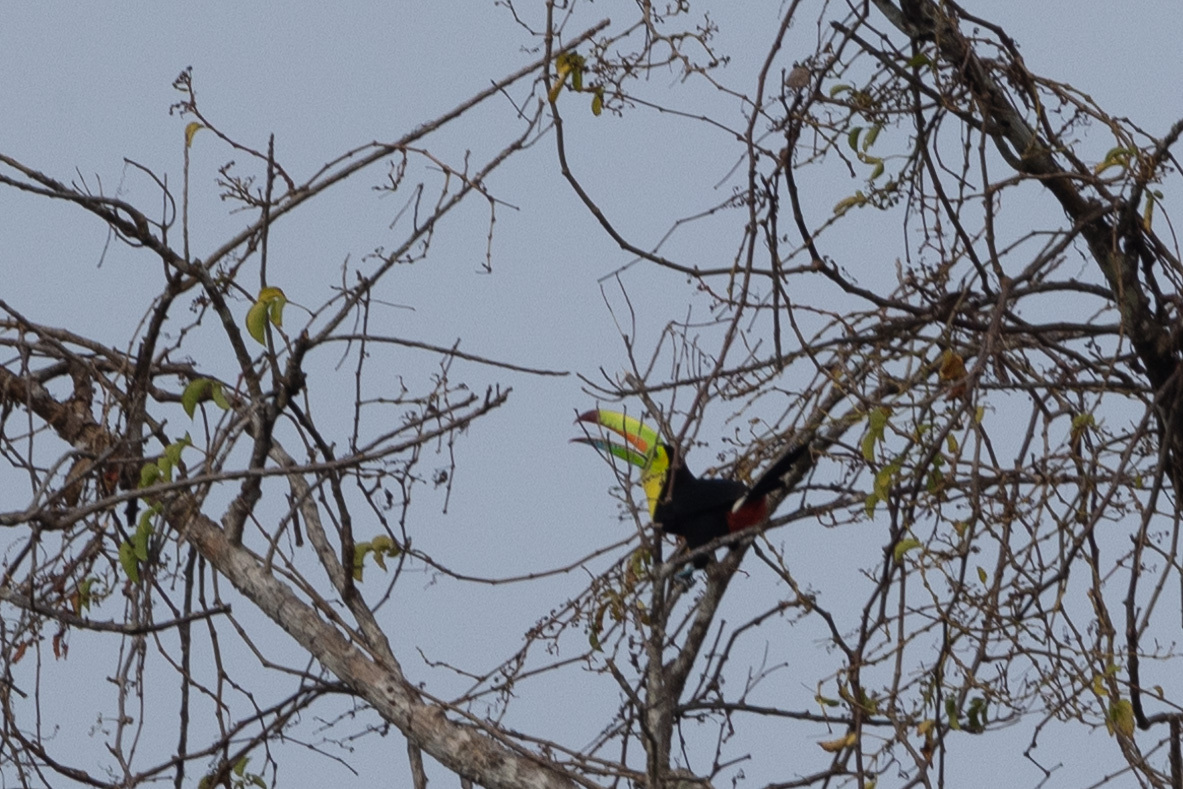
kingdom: Animalia
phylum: Chordata
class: Aves
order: Piciformes
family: Ramphastidae
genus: Ramphastos
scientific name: Ramphastos sulfuratus
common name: Keel-billed toucan
